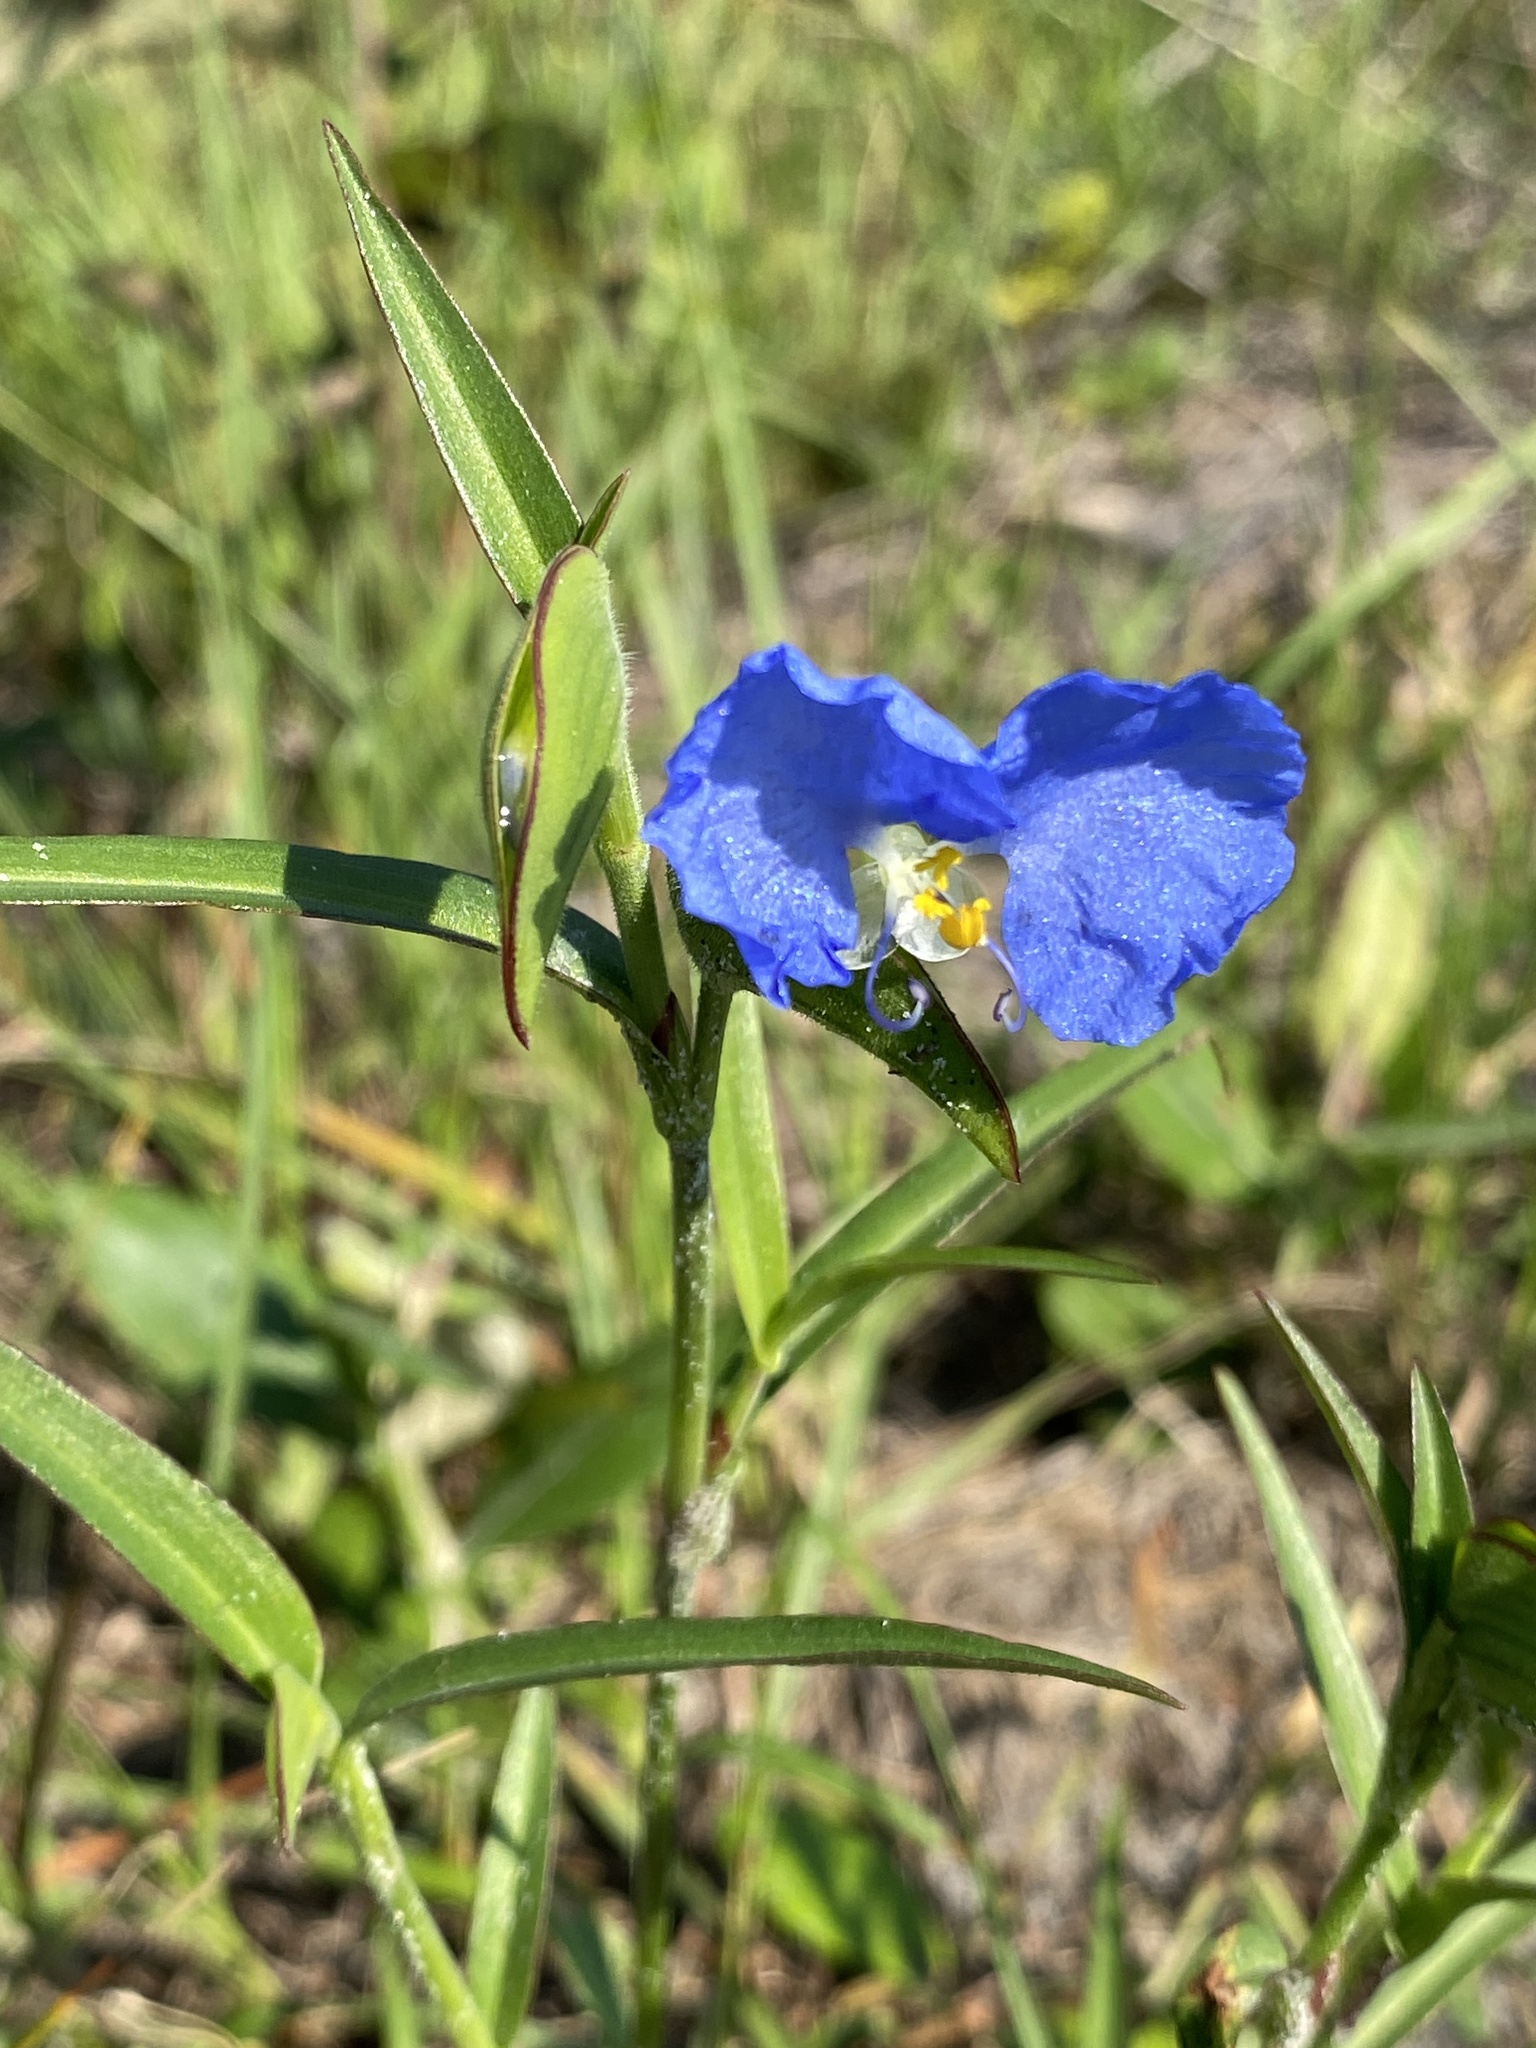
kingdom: Plantae
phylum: Tracheophyta
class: Liliopsida
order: Commelinales
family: Commelinaceae
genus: Commelina
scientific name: Commelina erecta
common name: Blousel blommetjie
